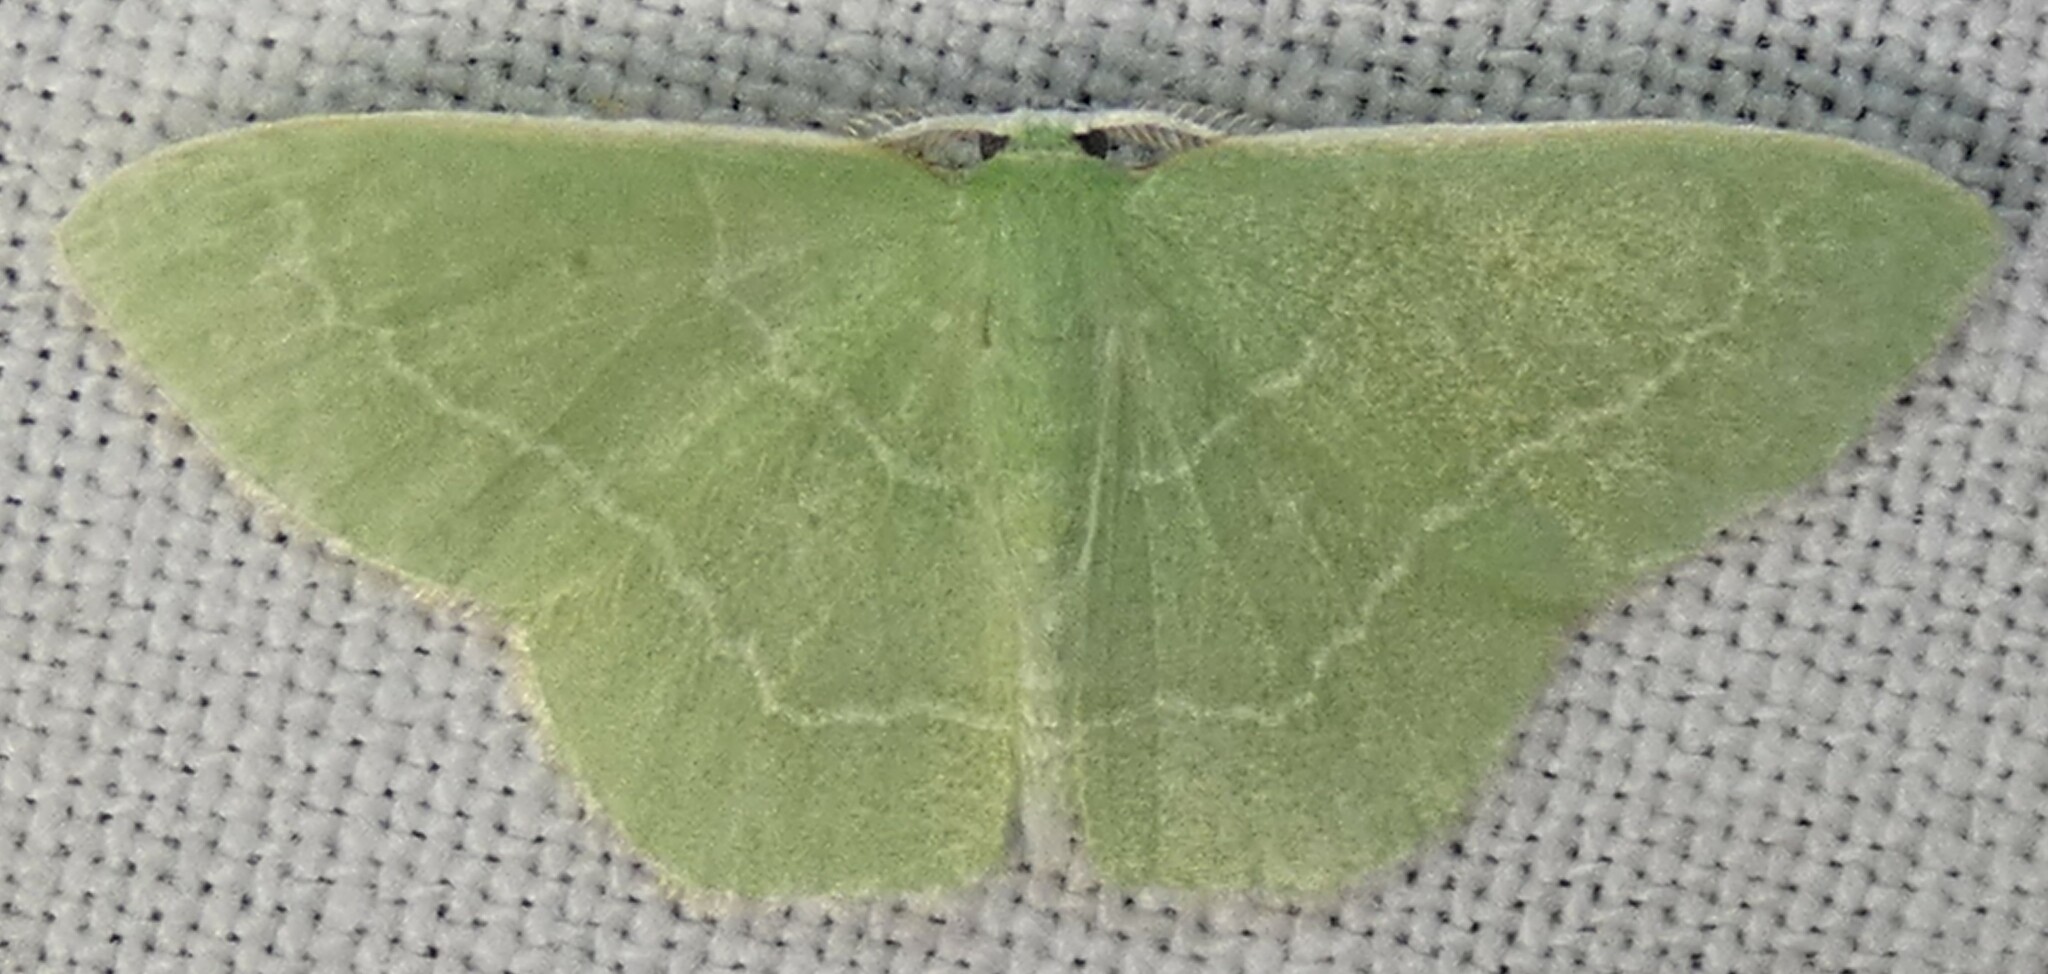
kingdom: Animalia
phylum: Arthropoda
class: Insecta
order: Lepidoptera
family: Geometridae
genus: Nemoria
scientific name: Nemoria elfa
